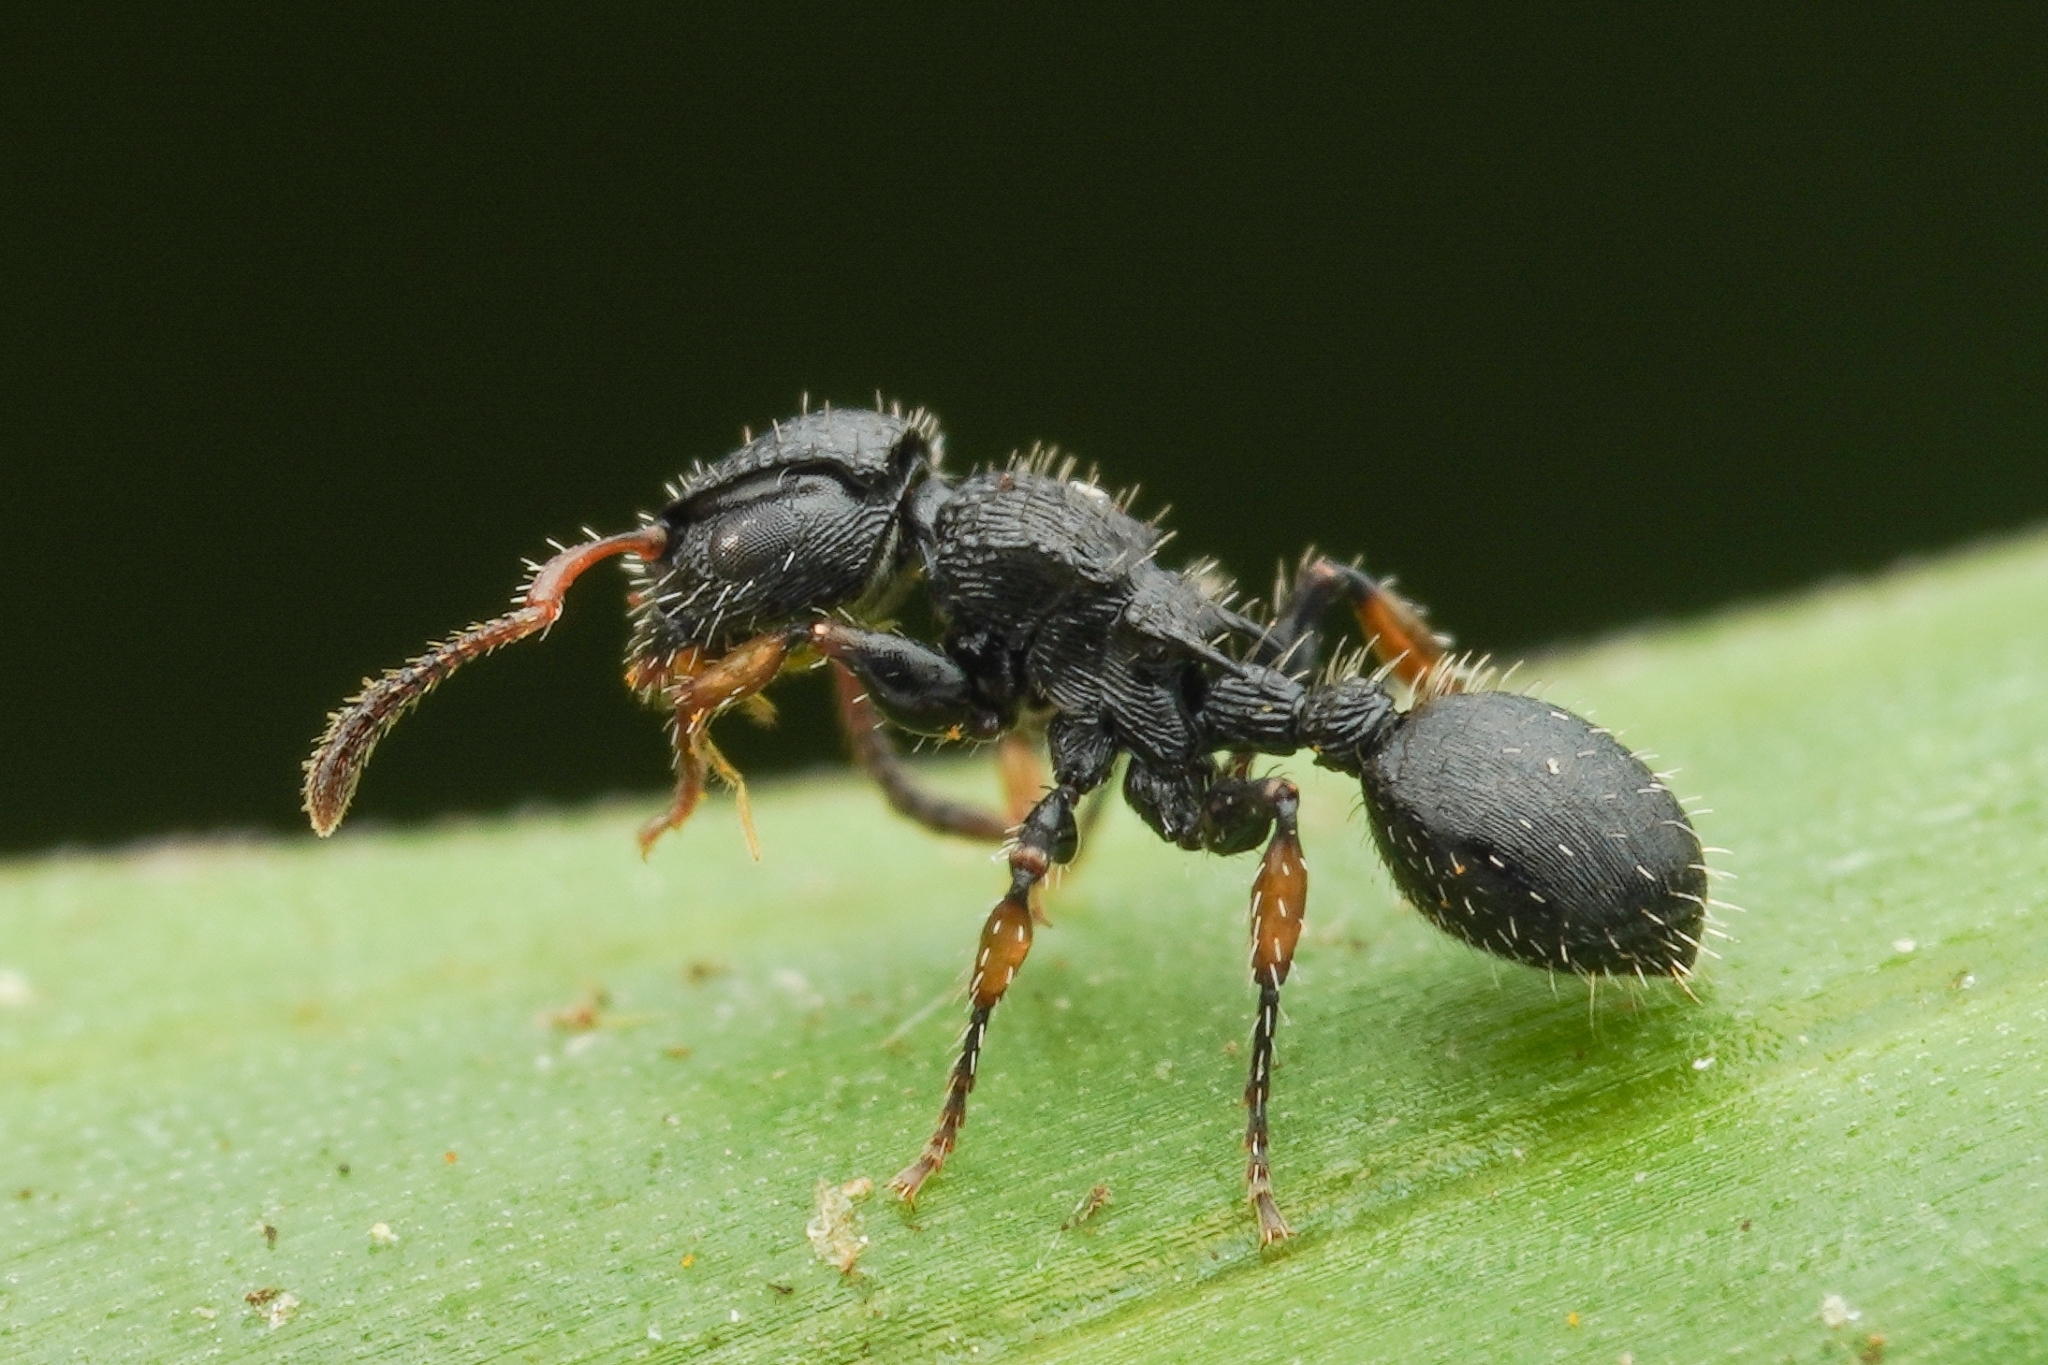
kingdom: Animalia
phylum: Arthropoda
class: Insecta
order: Hymenoptera
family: Formicidae
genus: Procryptocerus
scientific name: Procryptocerus pictipes
